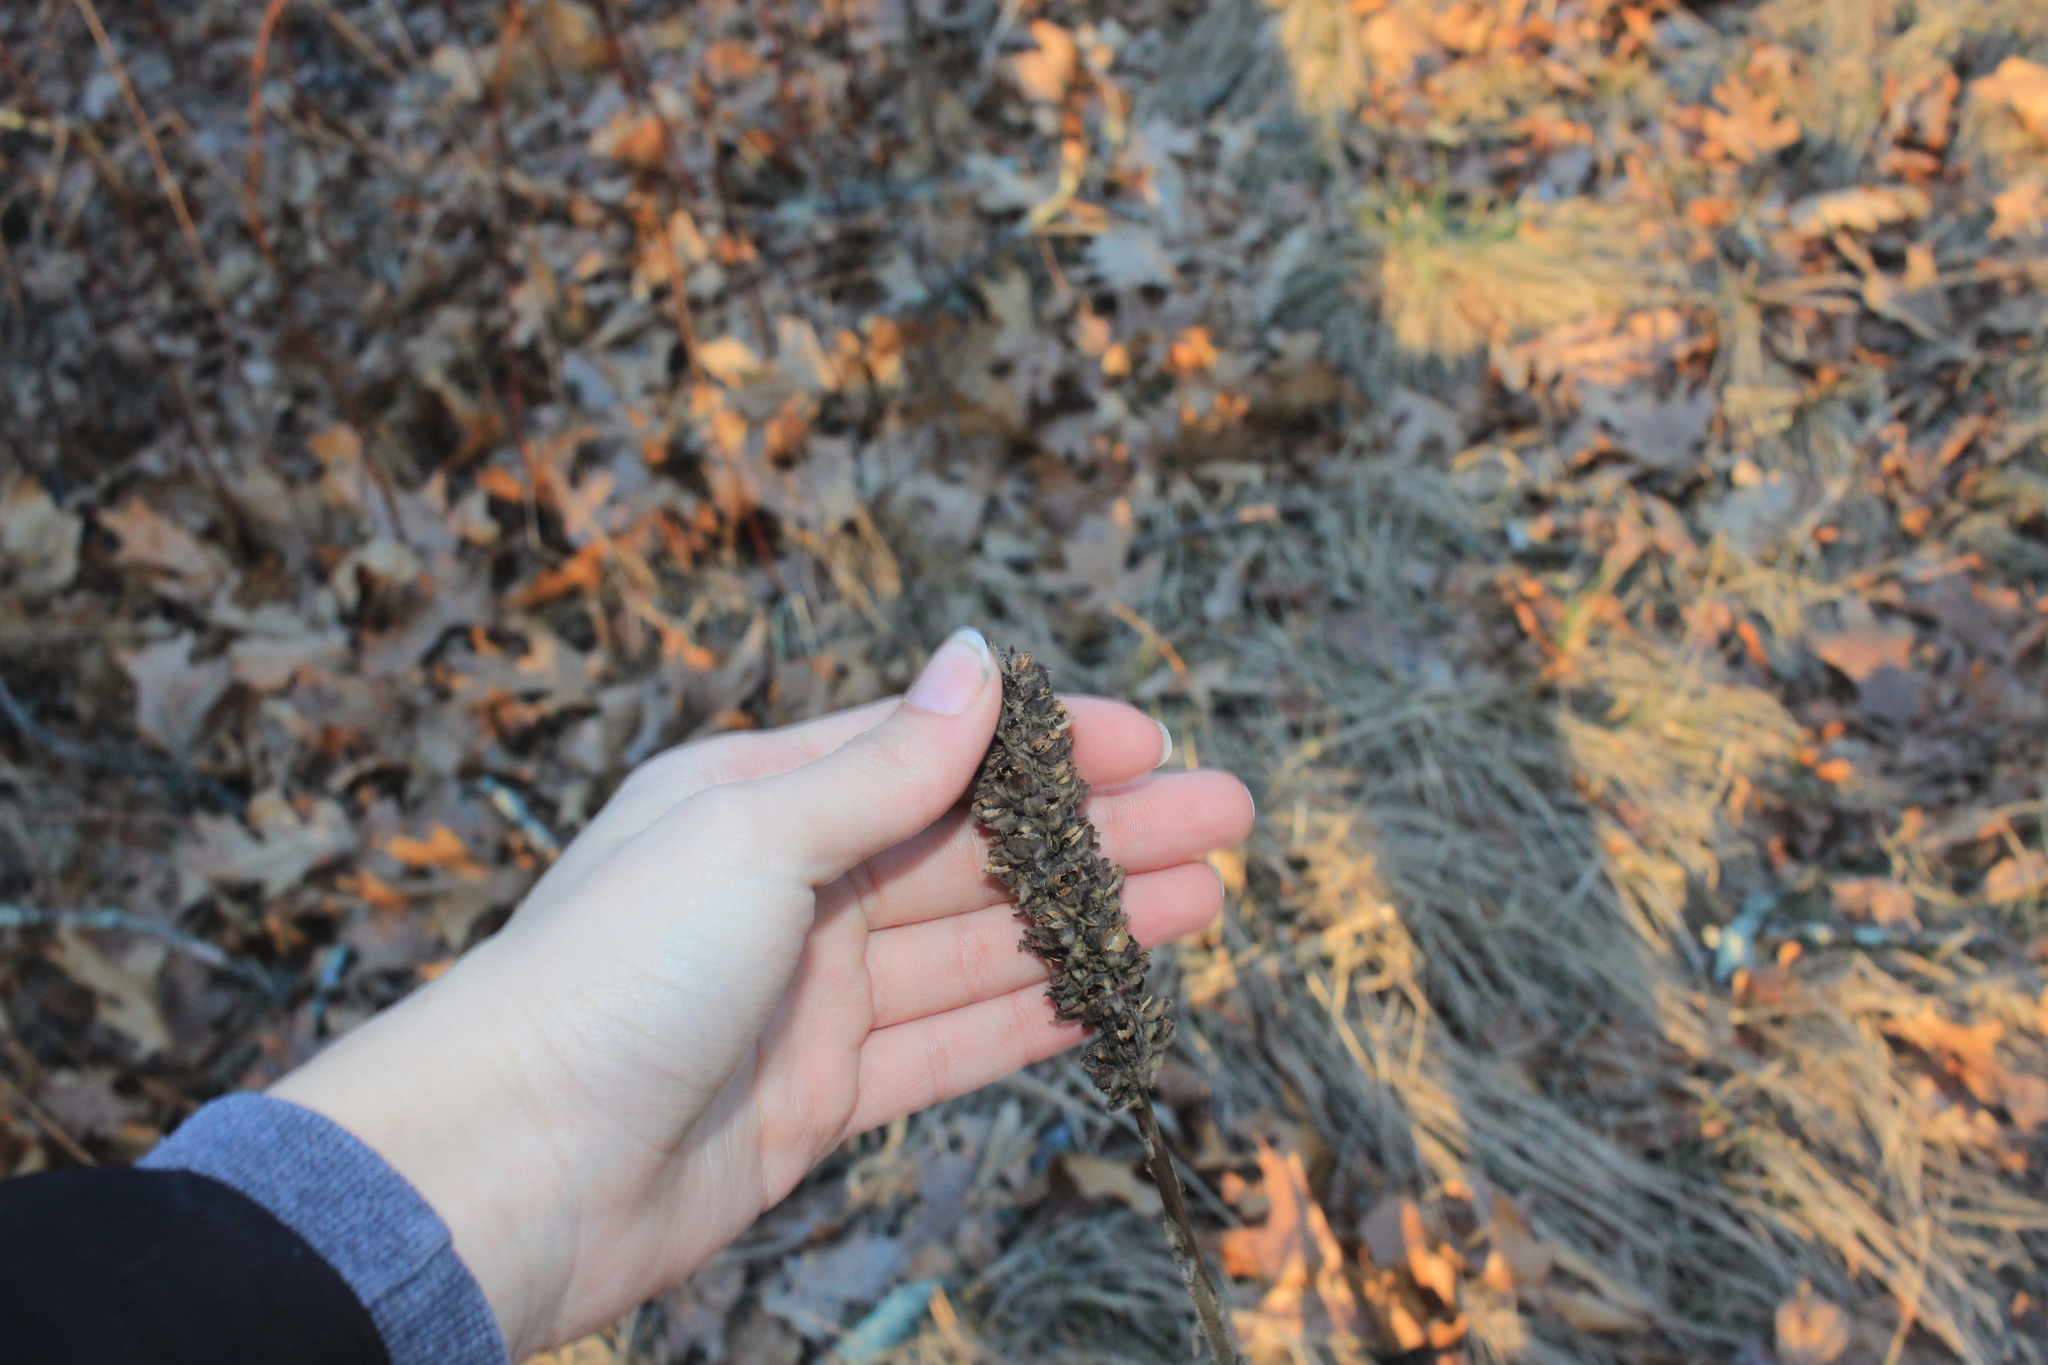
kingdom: Plantae
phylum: Tracheophyta
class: Magnoliopsida
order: Lamiales
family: Scrophulariaceae
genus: Verbascum
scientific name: Verbascum thapsus
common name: Common mullein
